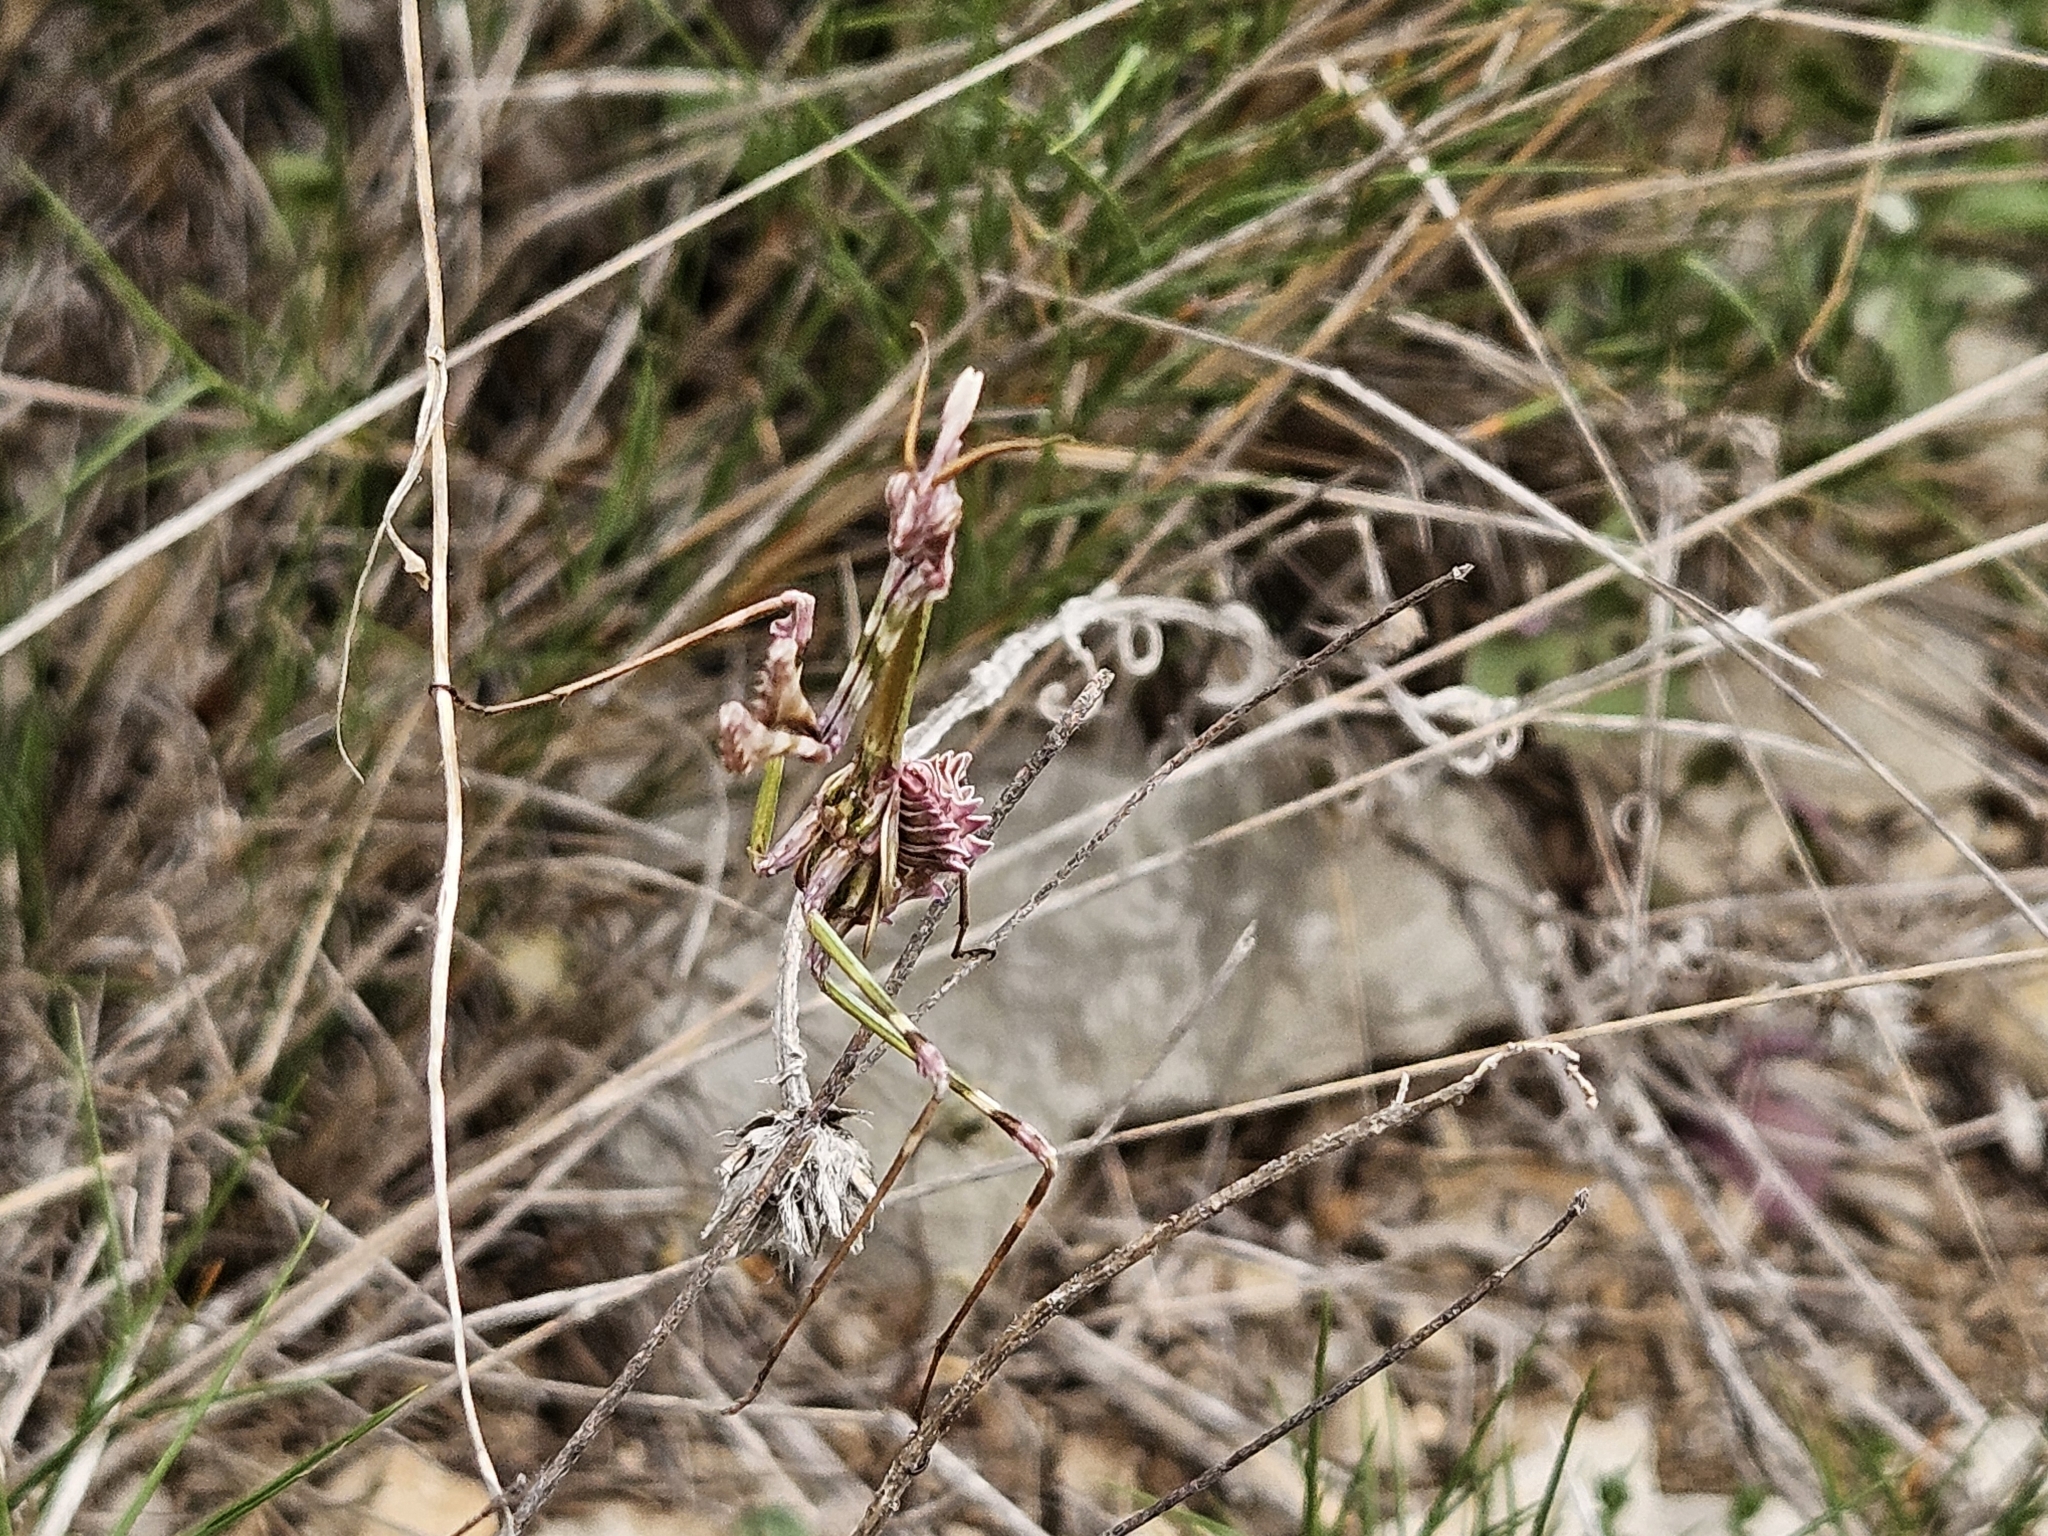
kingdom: Animalia
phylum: Arthropoda
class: Insecta
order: Mantodea
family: Empusidae
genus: Empusa
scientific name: Empusa pennata
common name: Conehead mantis
